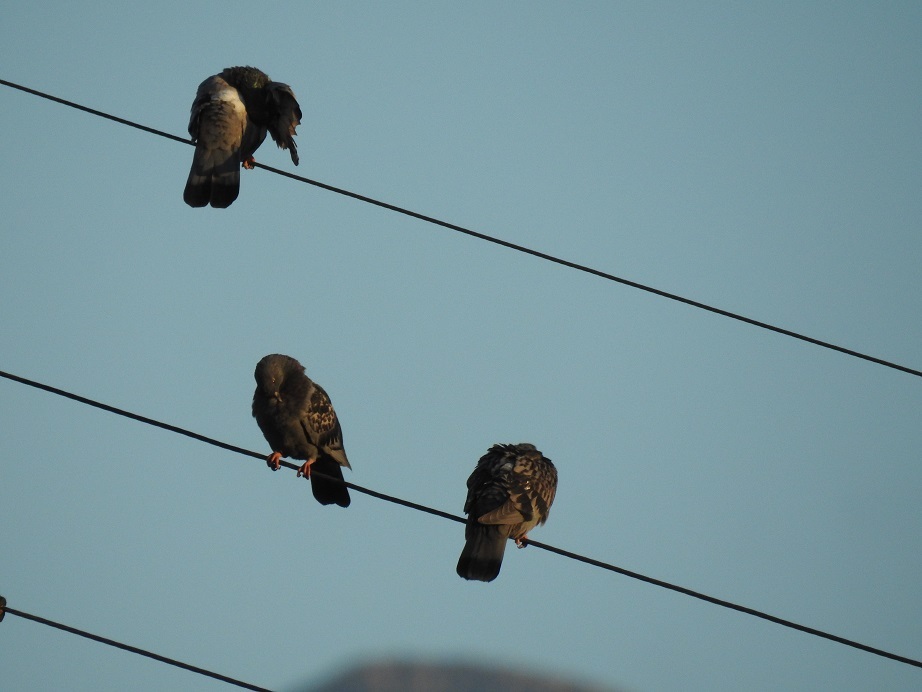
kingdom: Animalia
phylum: Chordata
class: Aves
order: Columbiformes
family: Columbidae
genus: Columba
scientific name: Columba livia
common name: Rock pigeon
